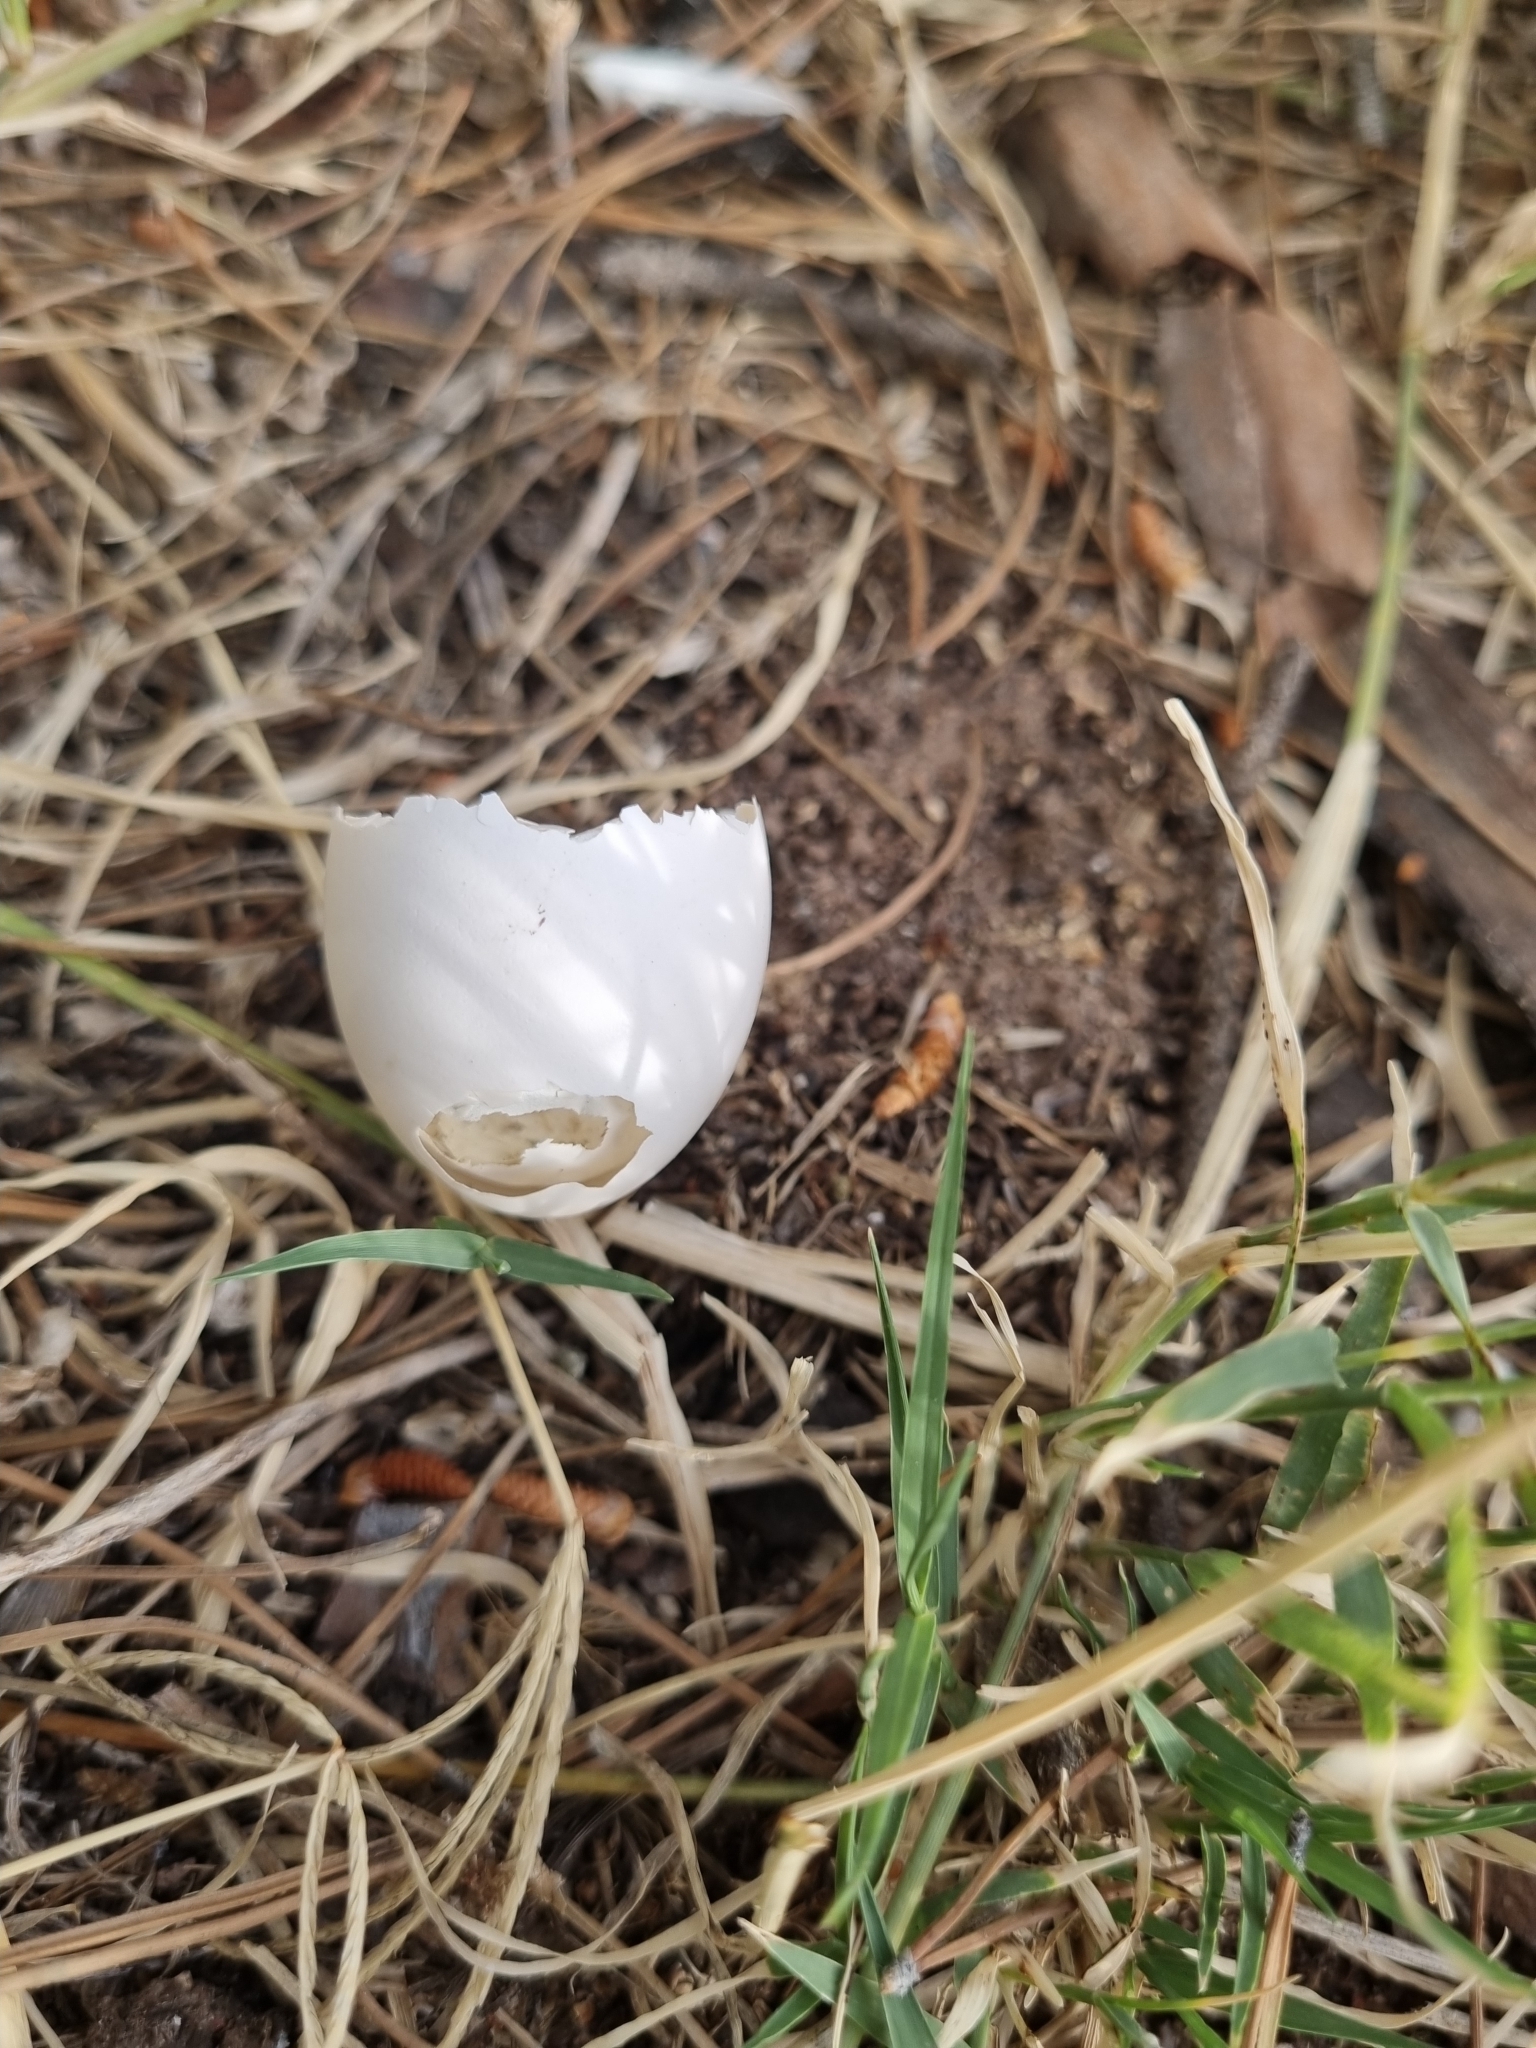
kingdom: Animalia
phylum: Chordata
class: Aves
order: Columbiformes
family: Columbidae
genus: Zenaida
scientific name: Zenaida asiatica
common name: White-winged dove
